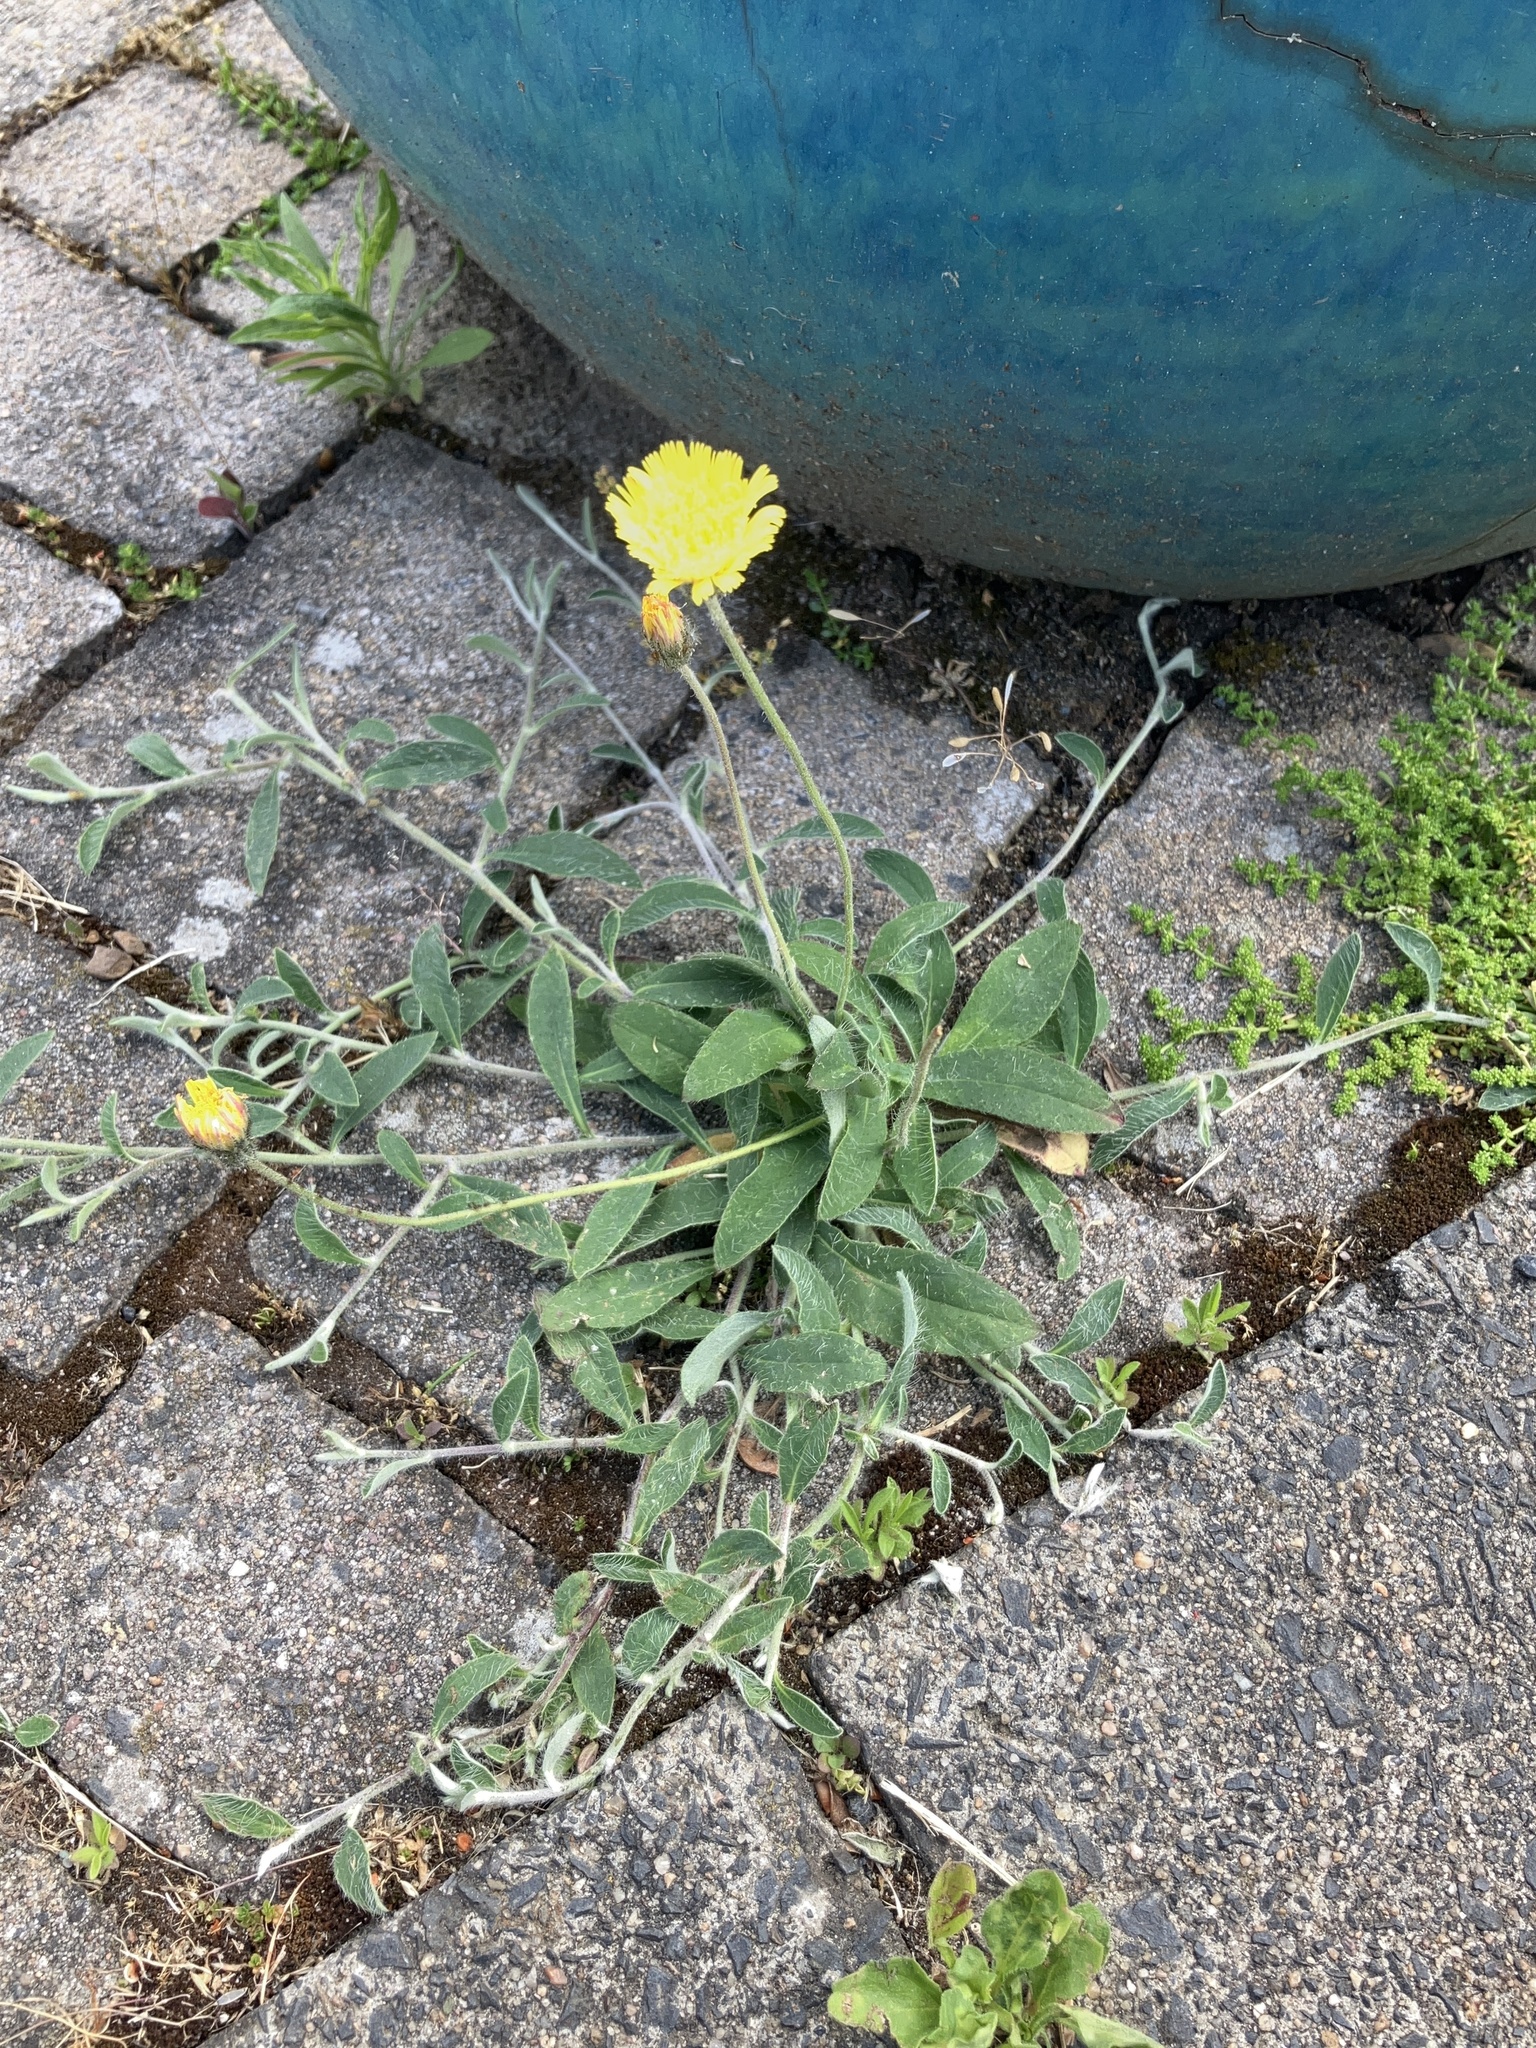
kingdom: Plantae
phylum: Tracheophyta
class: Magnoliopsida
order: Asterales
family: Asteraceae
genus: Pilosella
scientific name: Pilosella officinarum
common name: Mouse-ear hawkweed
